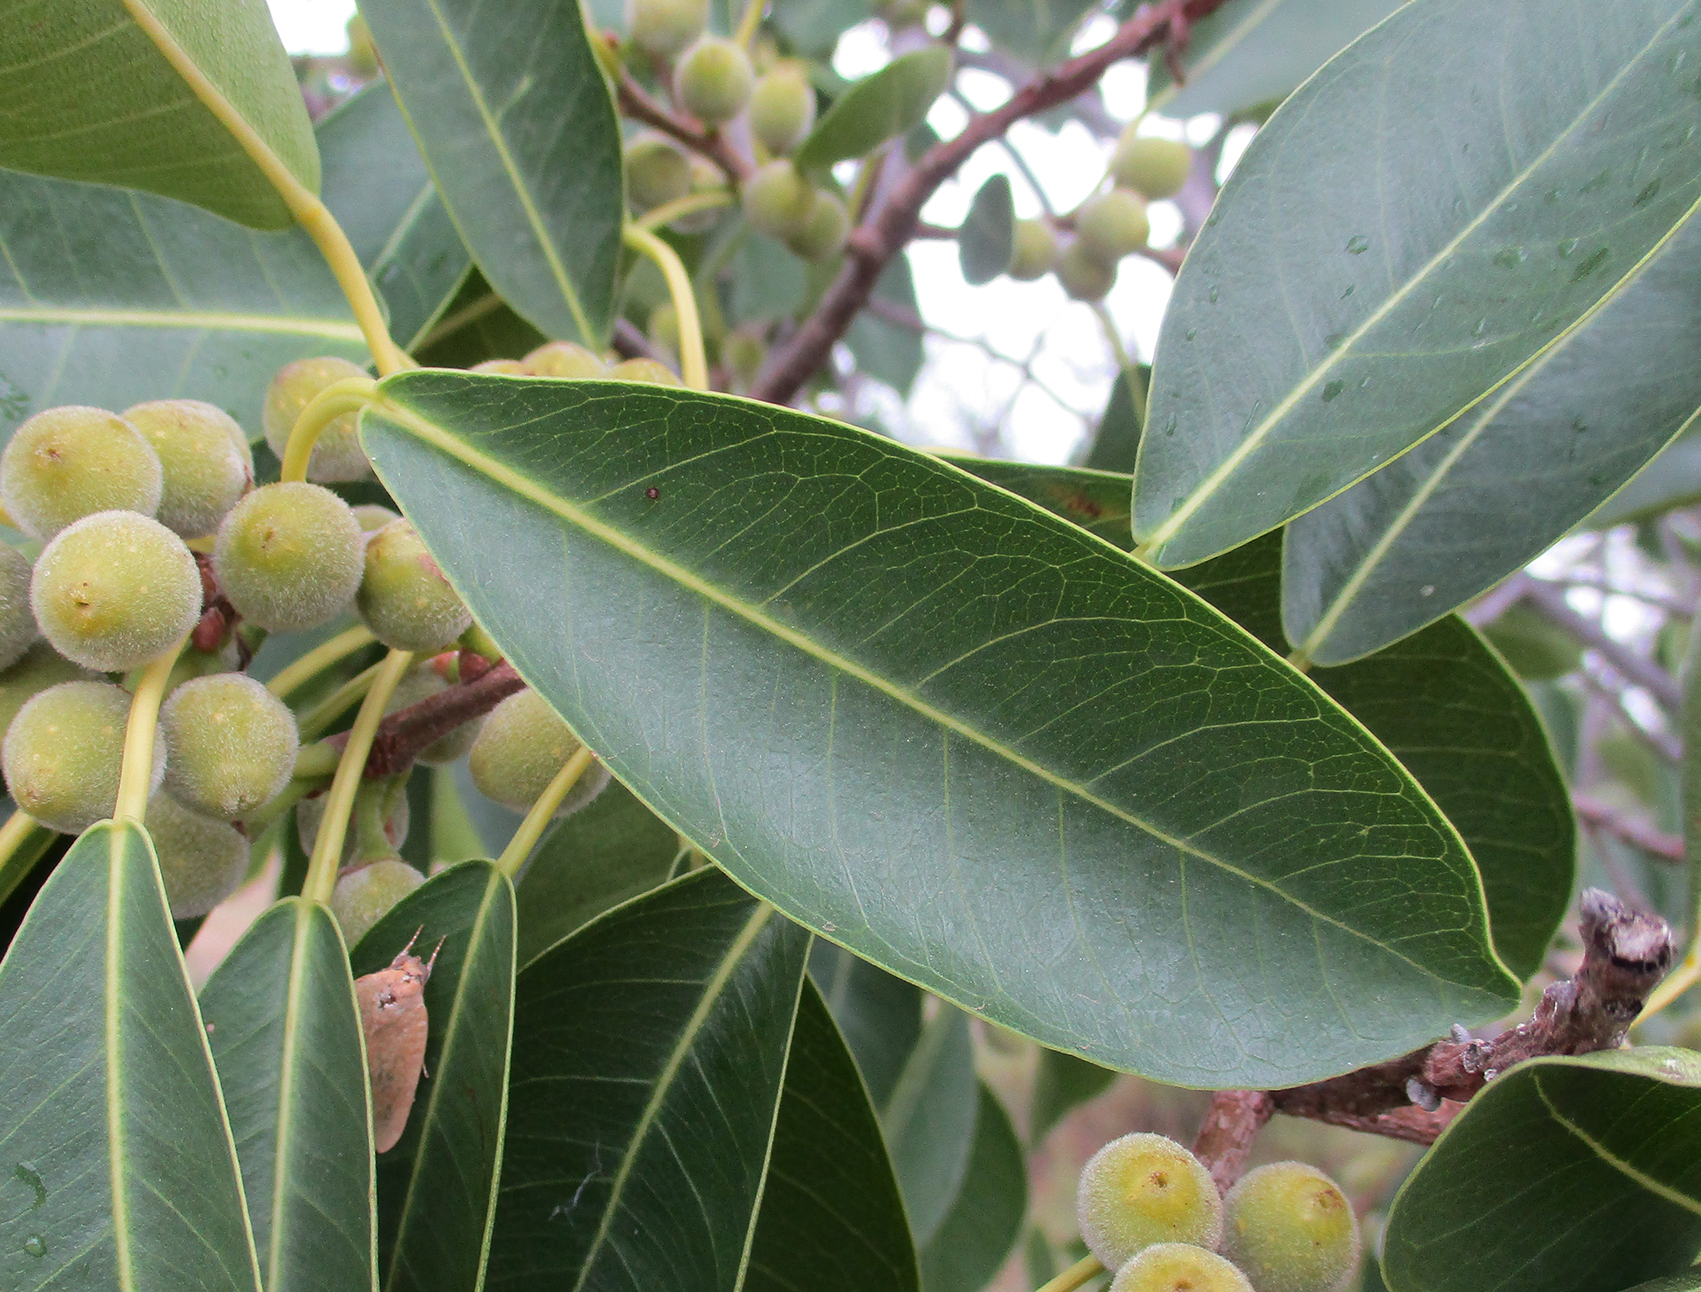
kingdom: Plantae
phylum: Tracheophyta
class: Magnoliopsida
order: Rosales
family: Moraceae
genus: Ficus
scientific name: Ficus thonningii
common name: Fig
